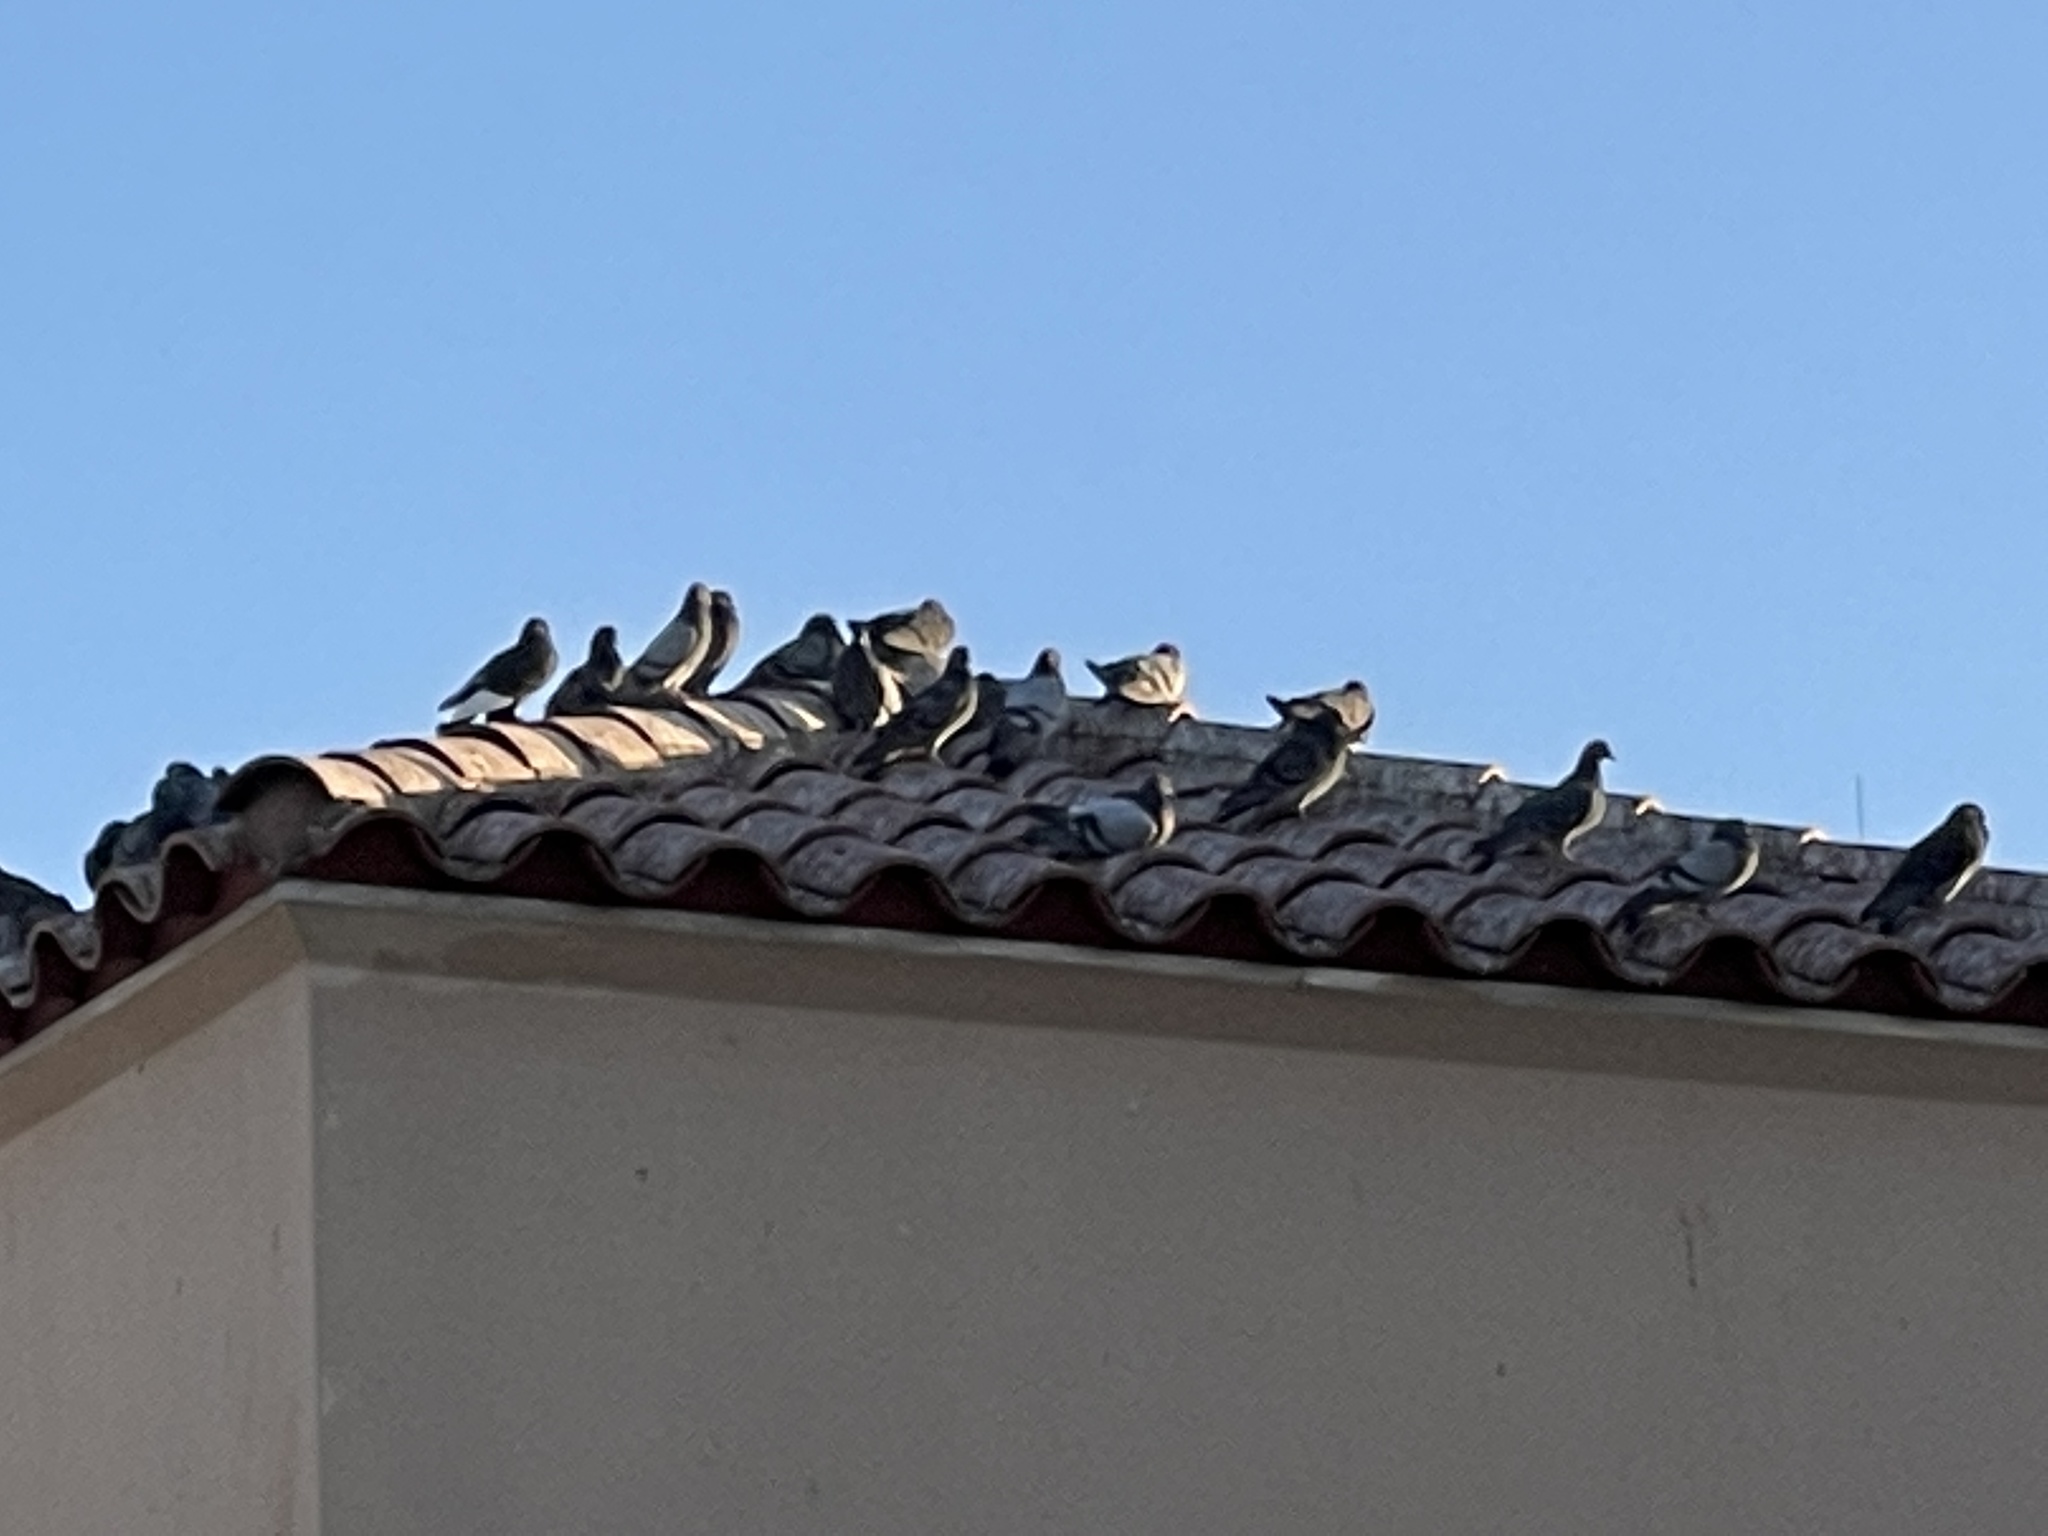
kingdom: Animalia
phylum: Chordata
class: Aves
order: Columbiformes
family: Columbidae
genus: Columba
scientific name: Columba livia
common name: Rock pigeon
